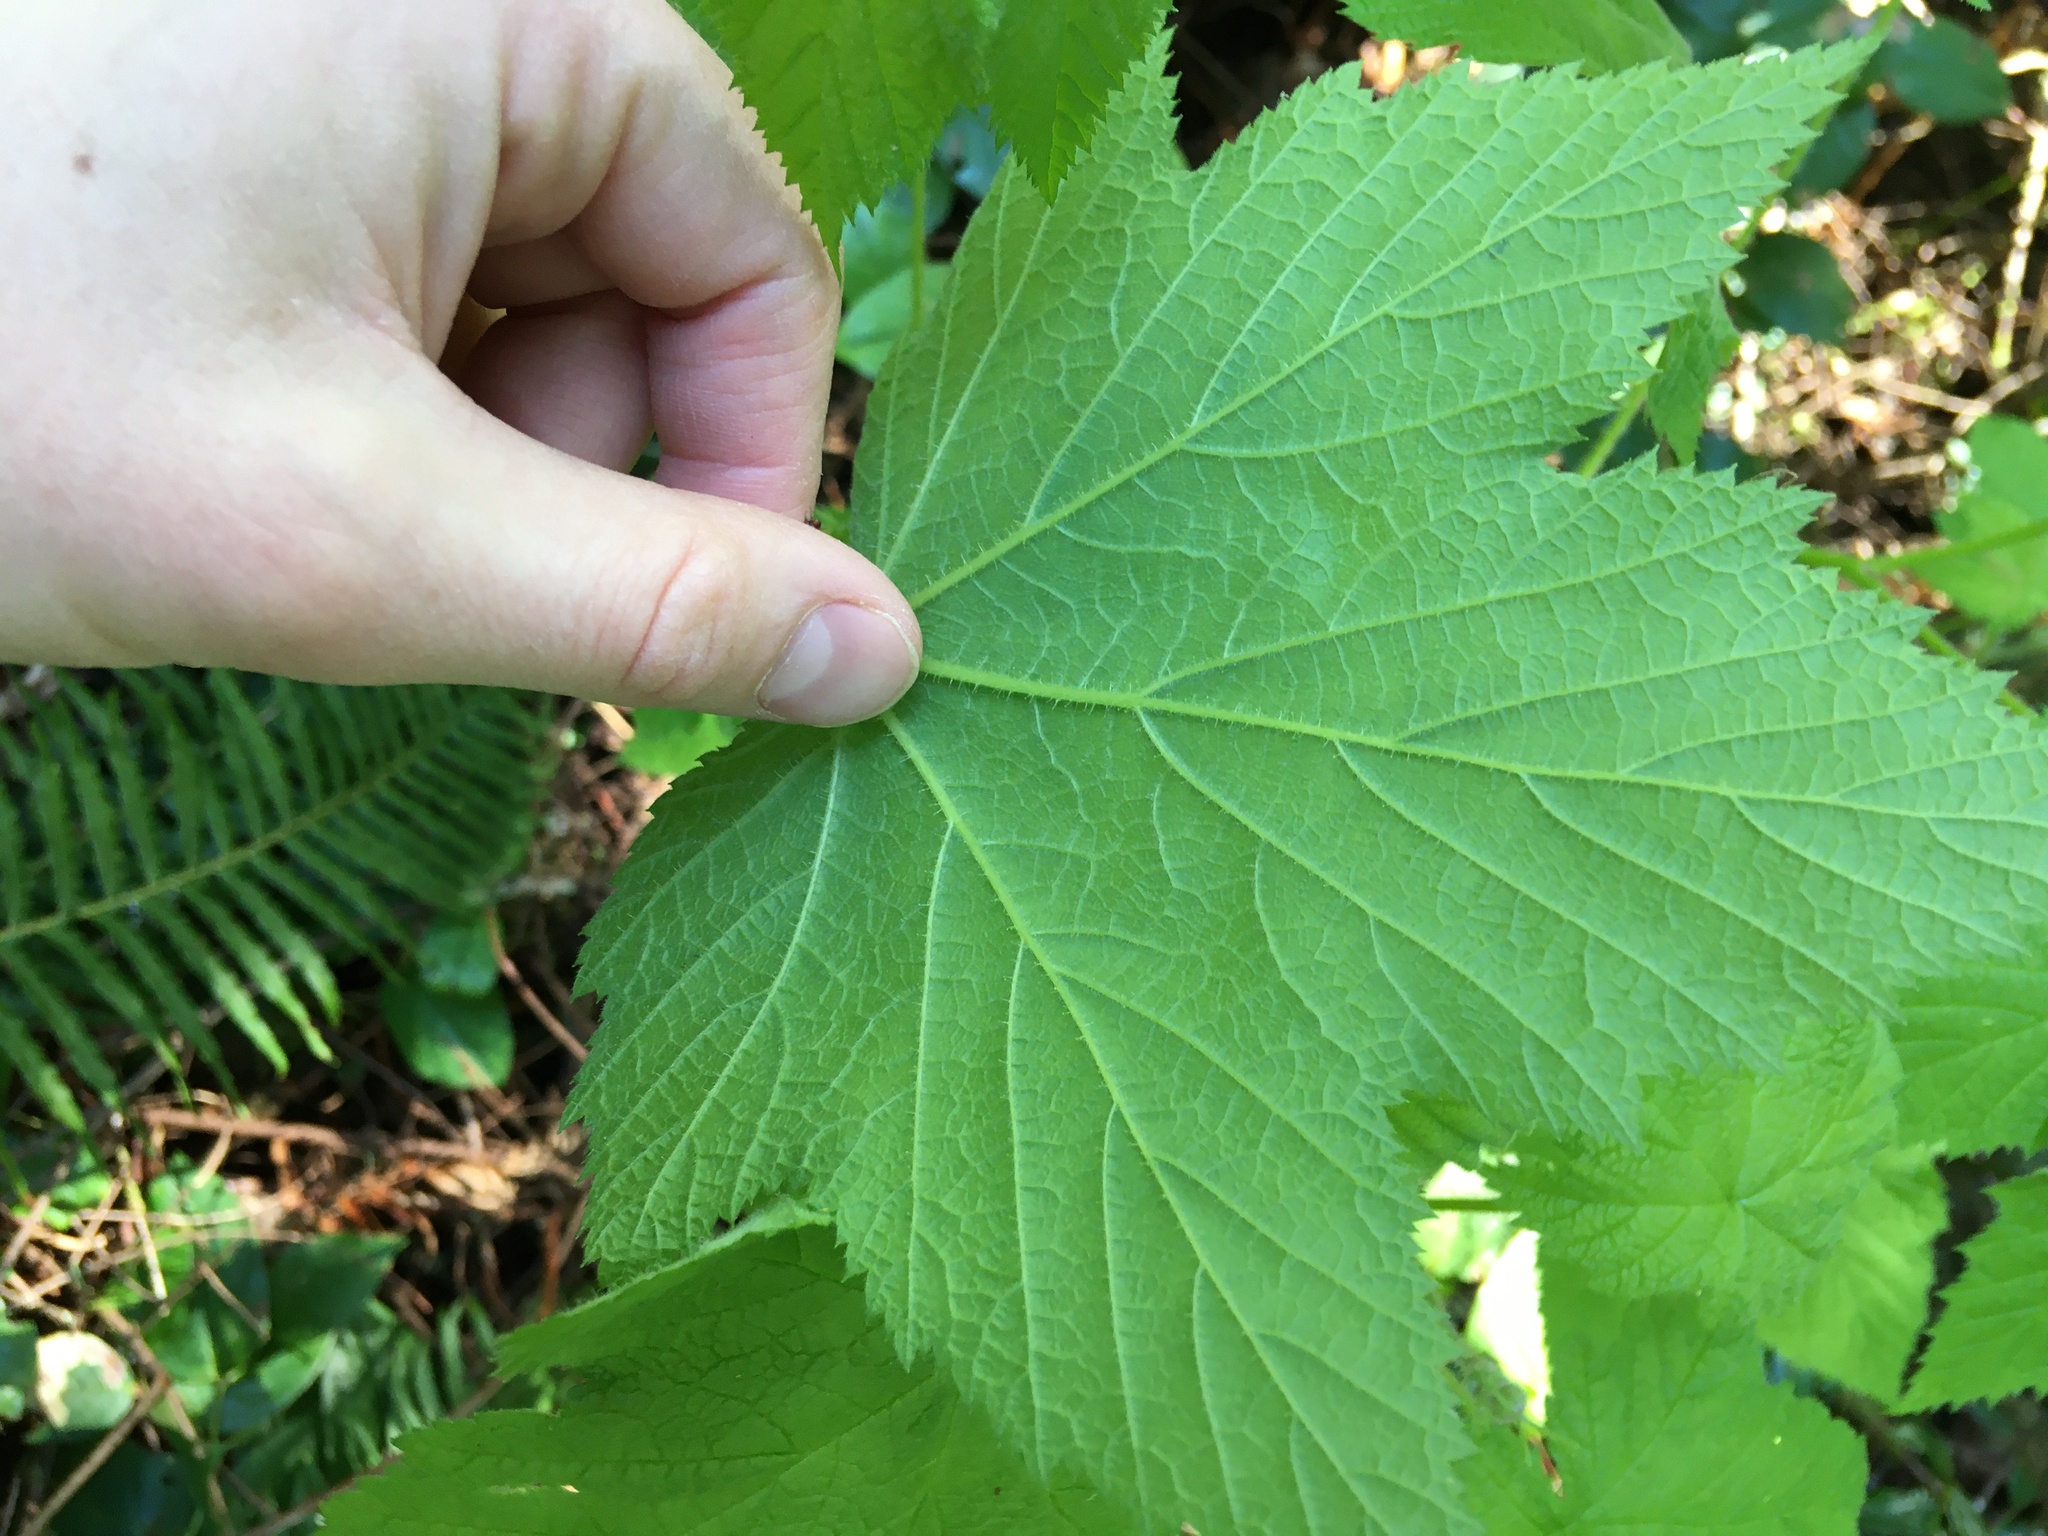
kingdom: Plantae
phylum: Tracheophyta
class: Magnoliopsida
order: Rosales
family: Rosaceae
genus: Rubus
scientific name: Rubus parviflorus
